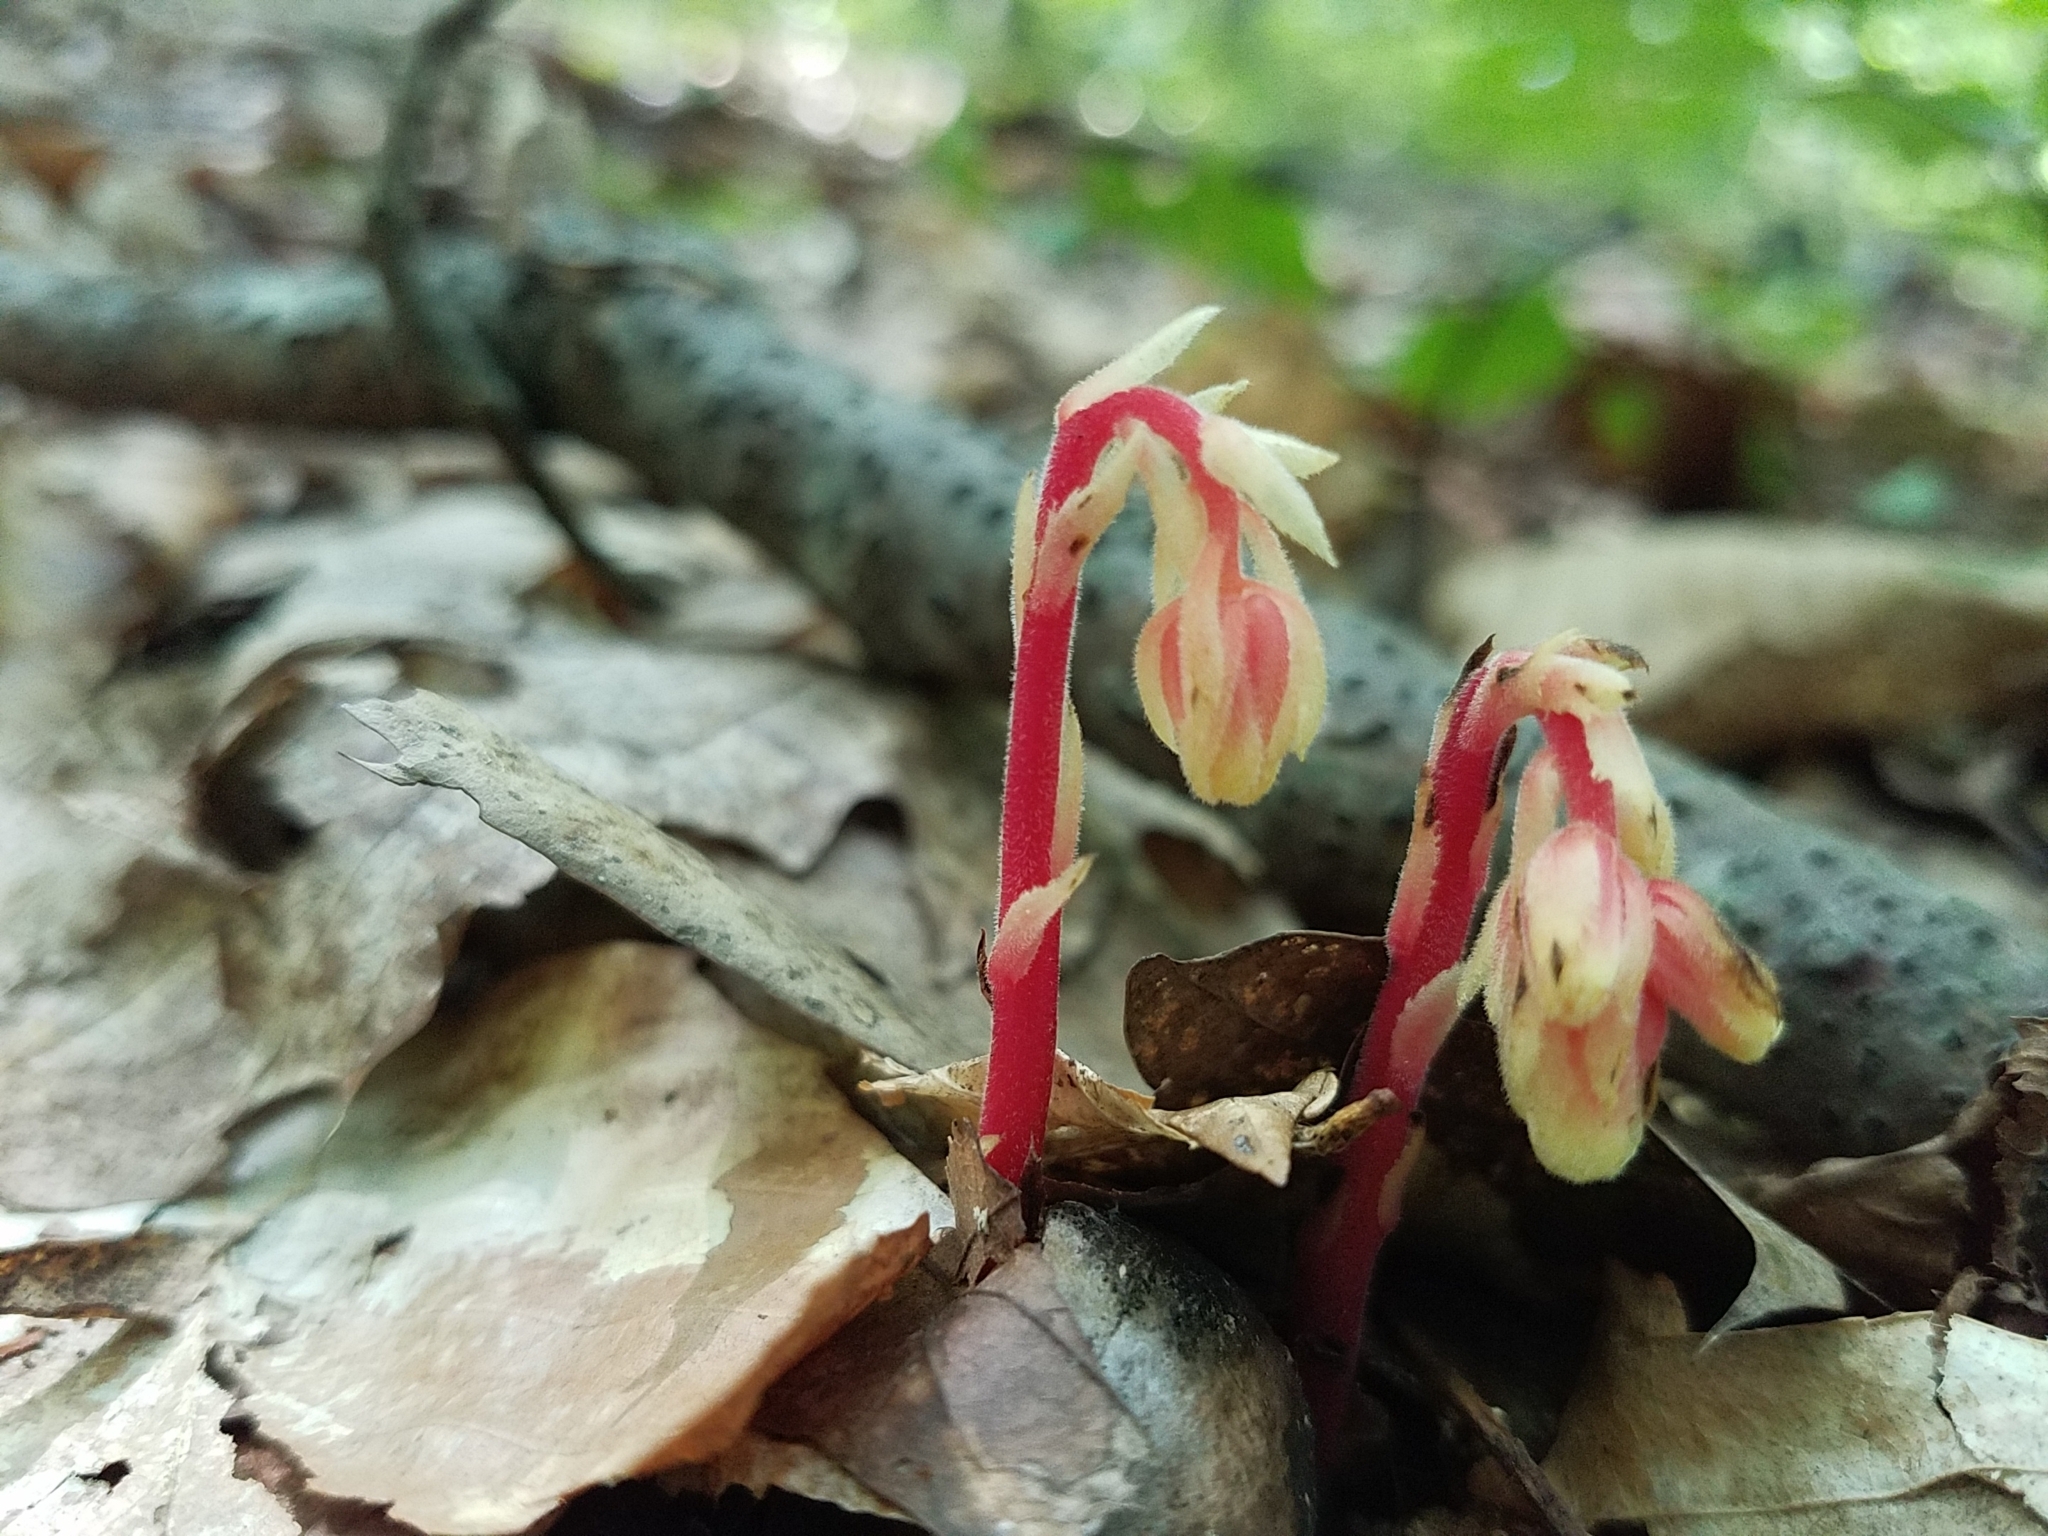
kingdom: Plantae
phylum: Tracheophyta
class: Magnoliopsida
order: Ericales
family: Ericaceae
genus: Hypopitys
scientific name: Hypopitys monotropa
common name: Yellow bird's-nest
